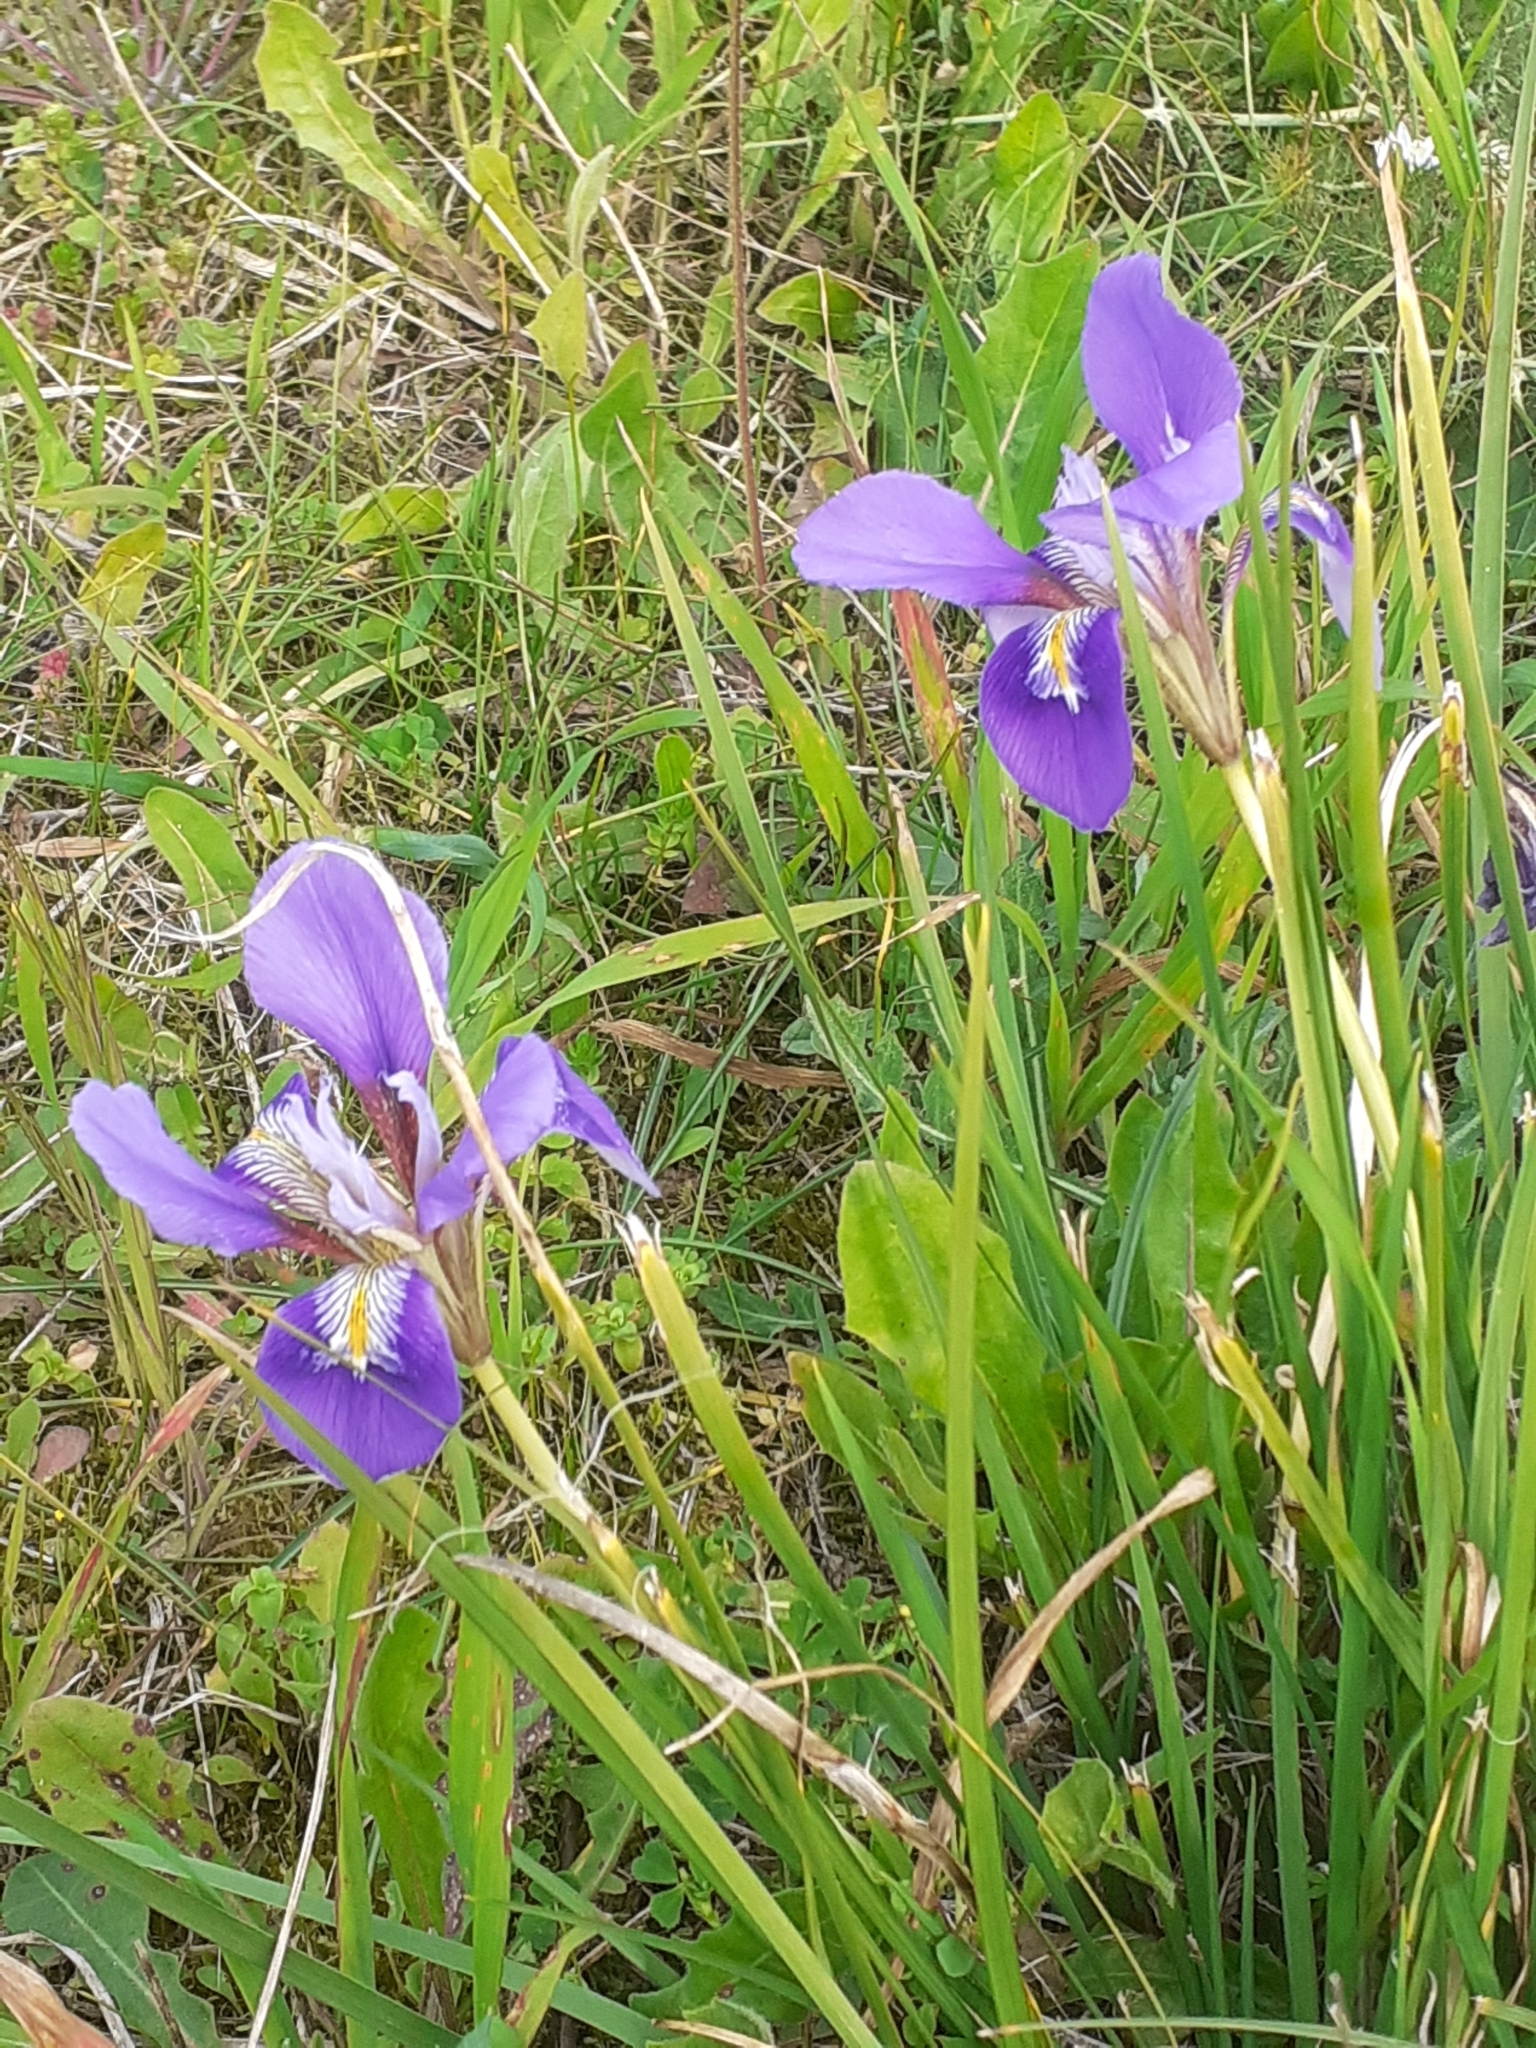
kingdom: Plantae
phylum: Tracheophyta
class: Liliopsida
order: Asparagales
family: Iridaceae
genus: Iris
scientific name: Iris unguicularis
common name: Algerian iris
